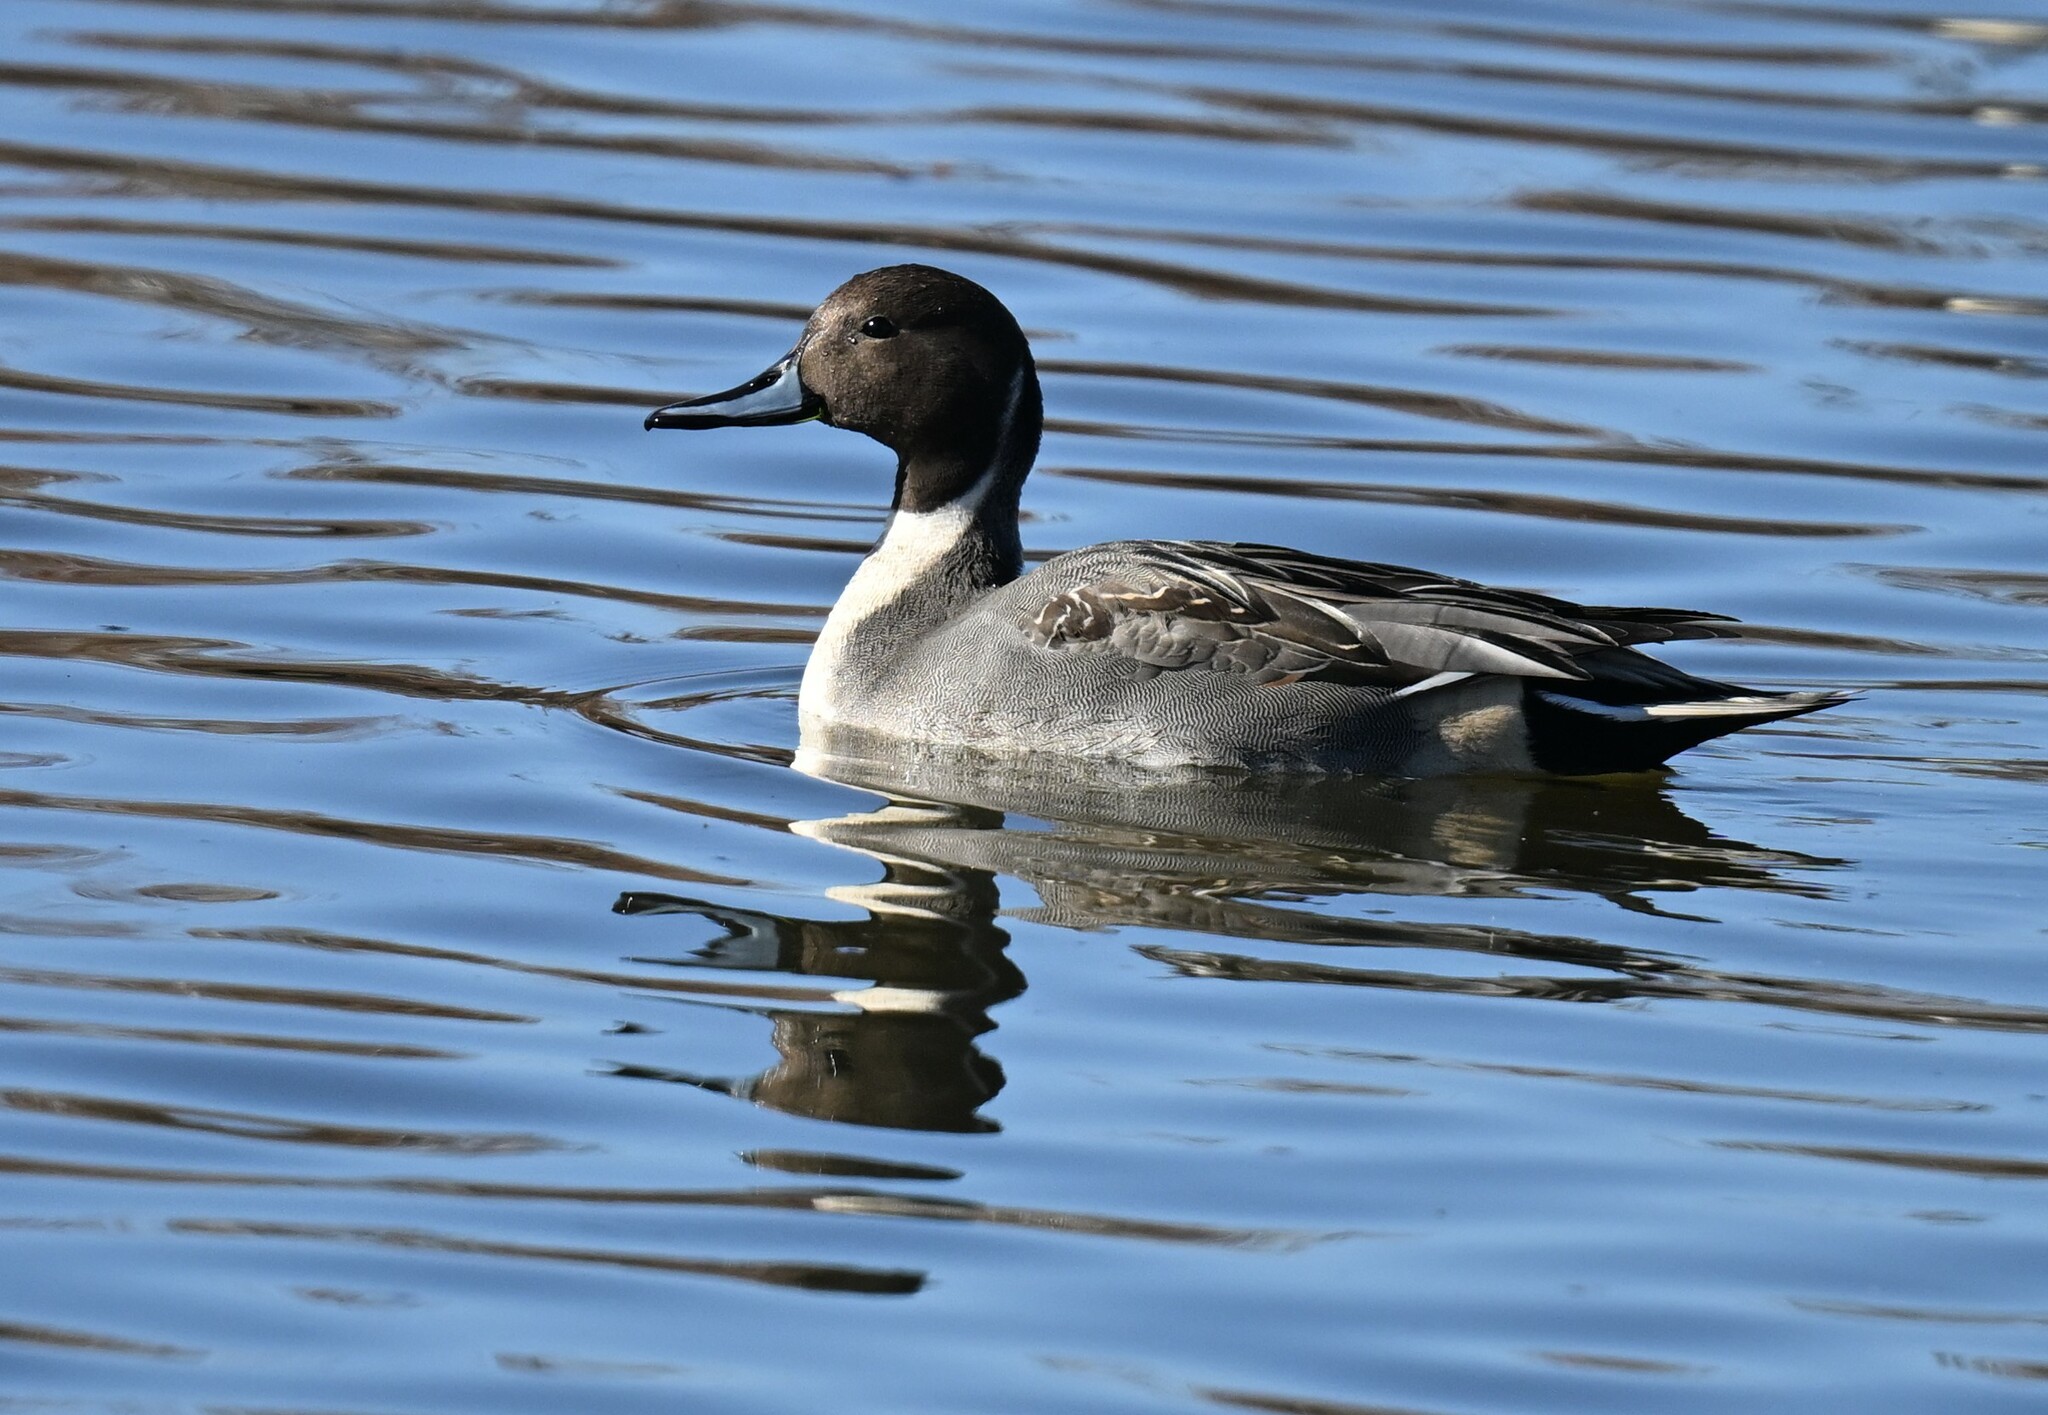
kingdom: Animalia
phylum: Chordata
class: Aves
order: Anseriformes
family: Anatidae
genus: Anas
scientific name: Anas acuta
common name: Northern pintail
